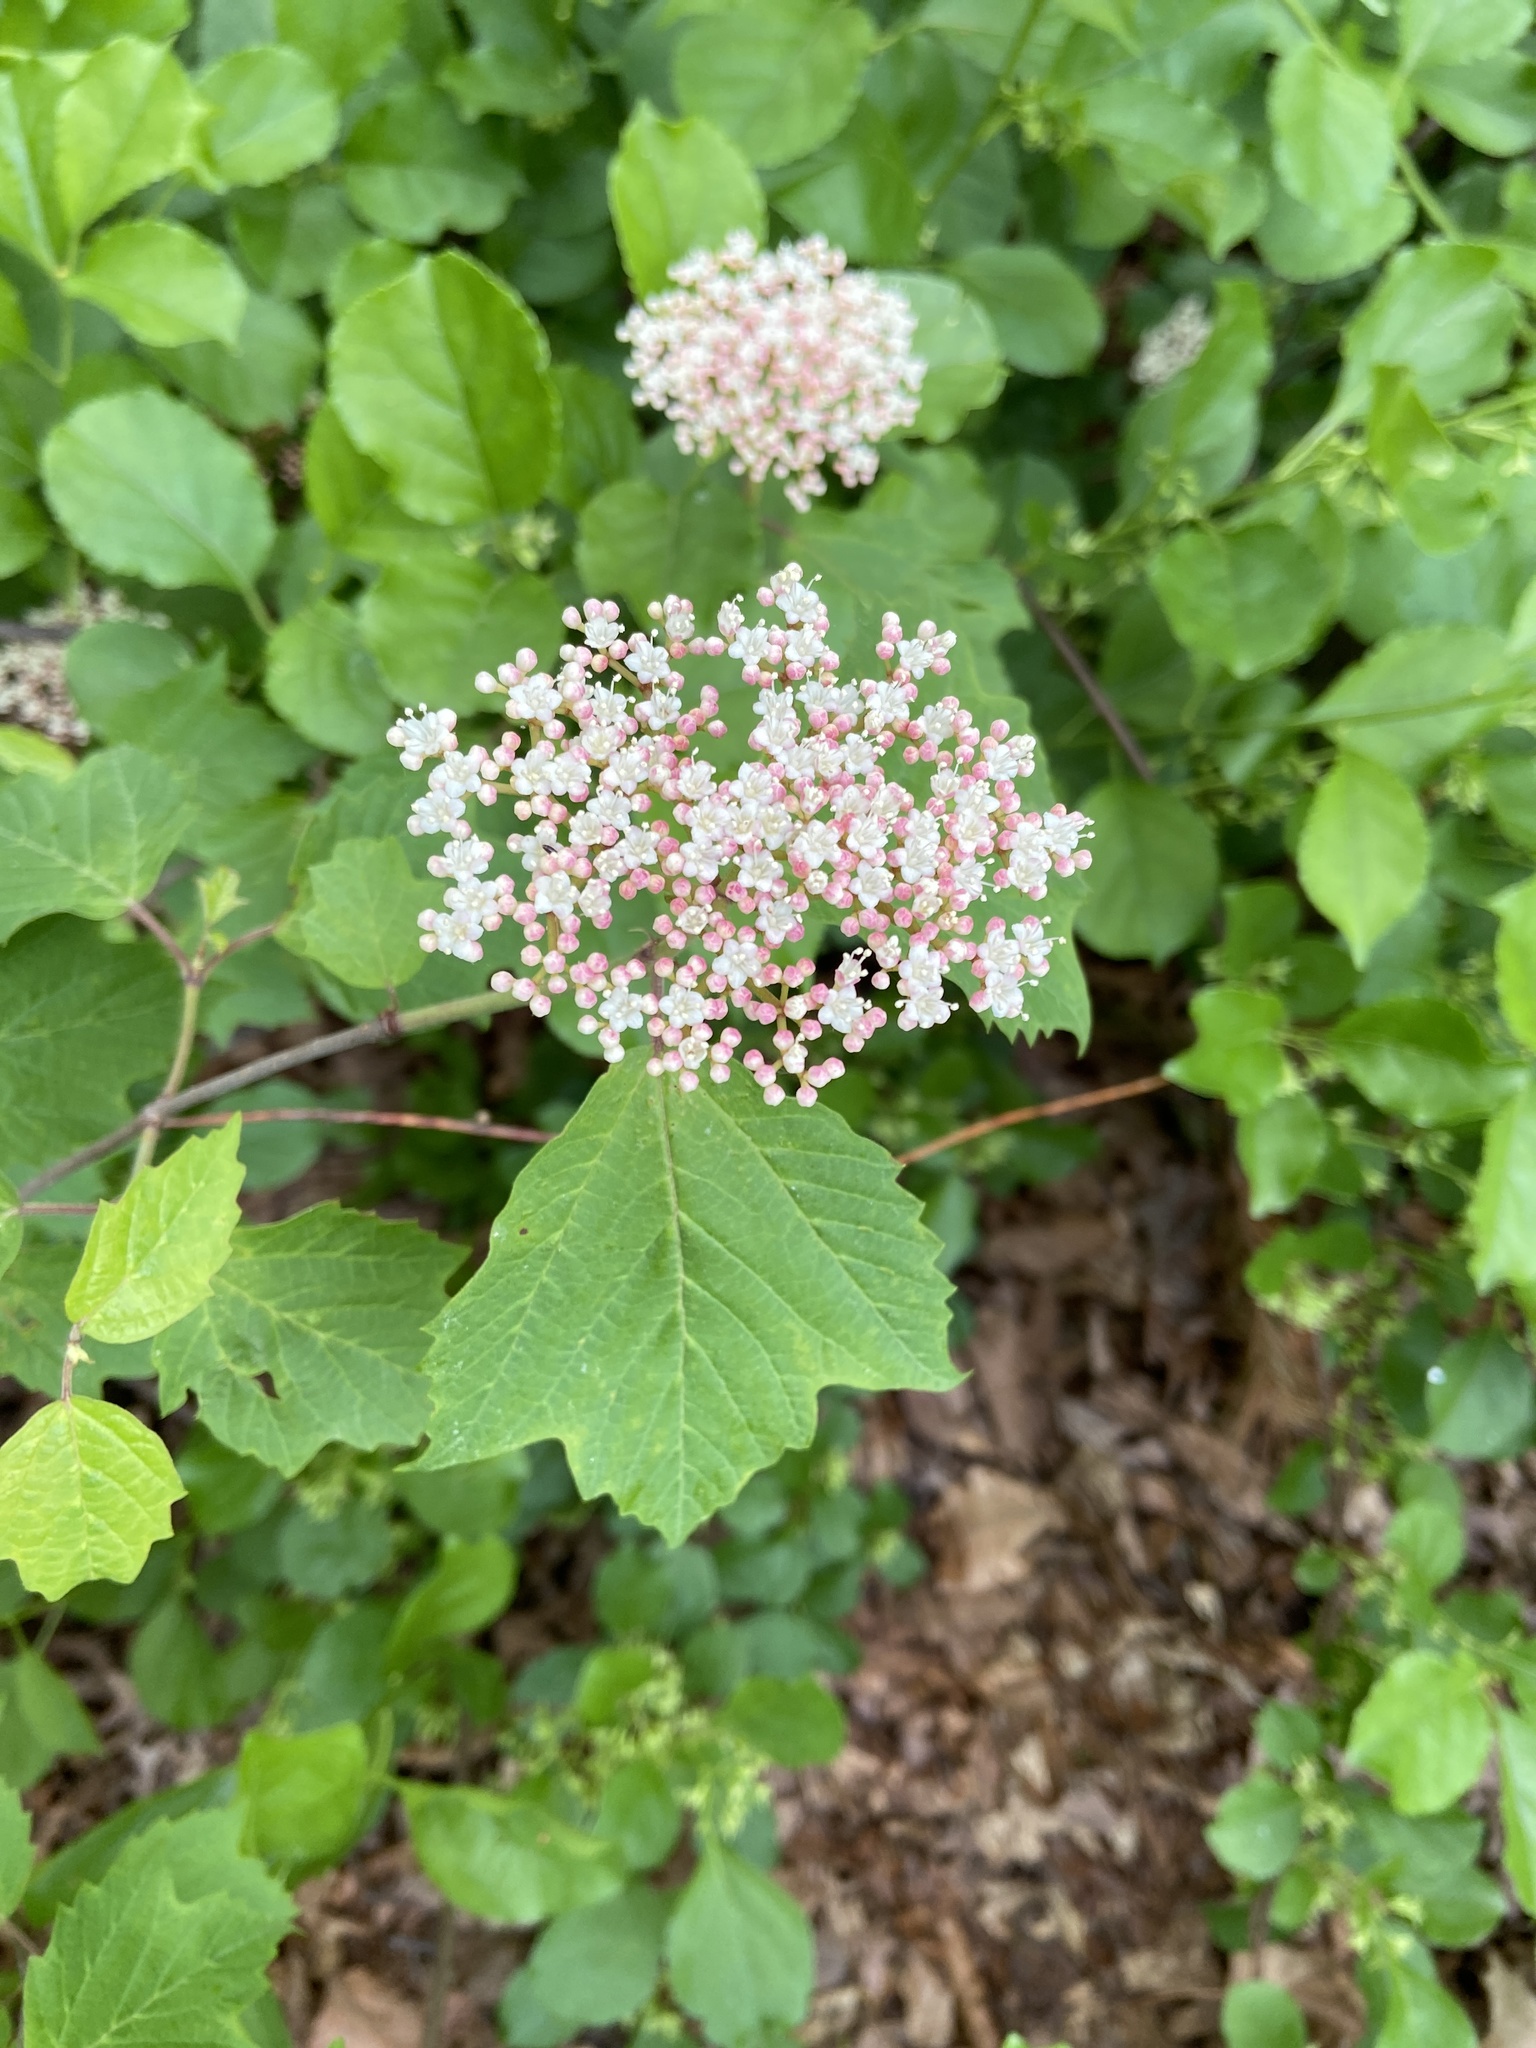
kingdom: Plantae
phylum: Tracheophyta
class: Magnoliopsida
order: Dipsacales
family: Viburnaceae
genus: Viburnum
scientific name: Viburnum acerifolium
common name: Dockmackie
